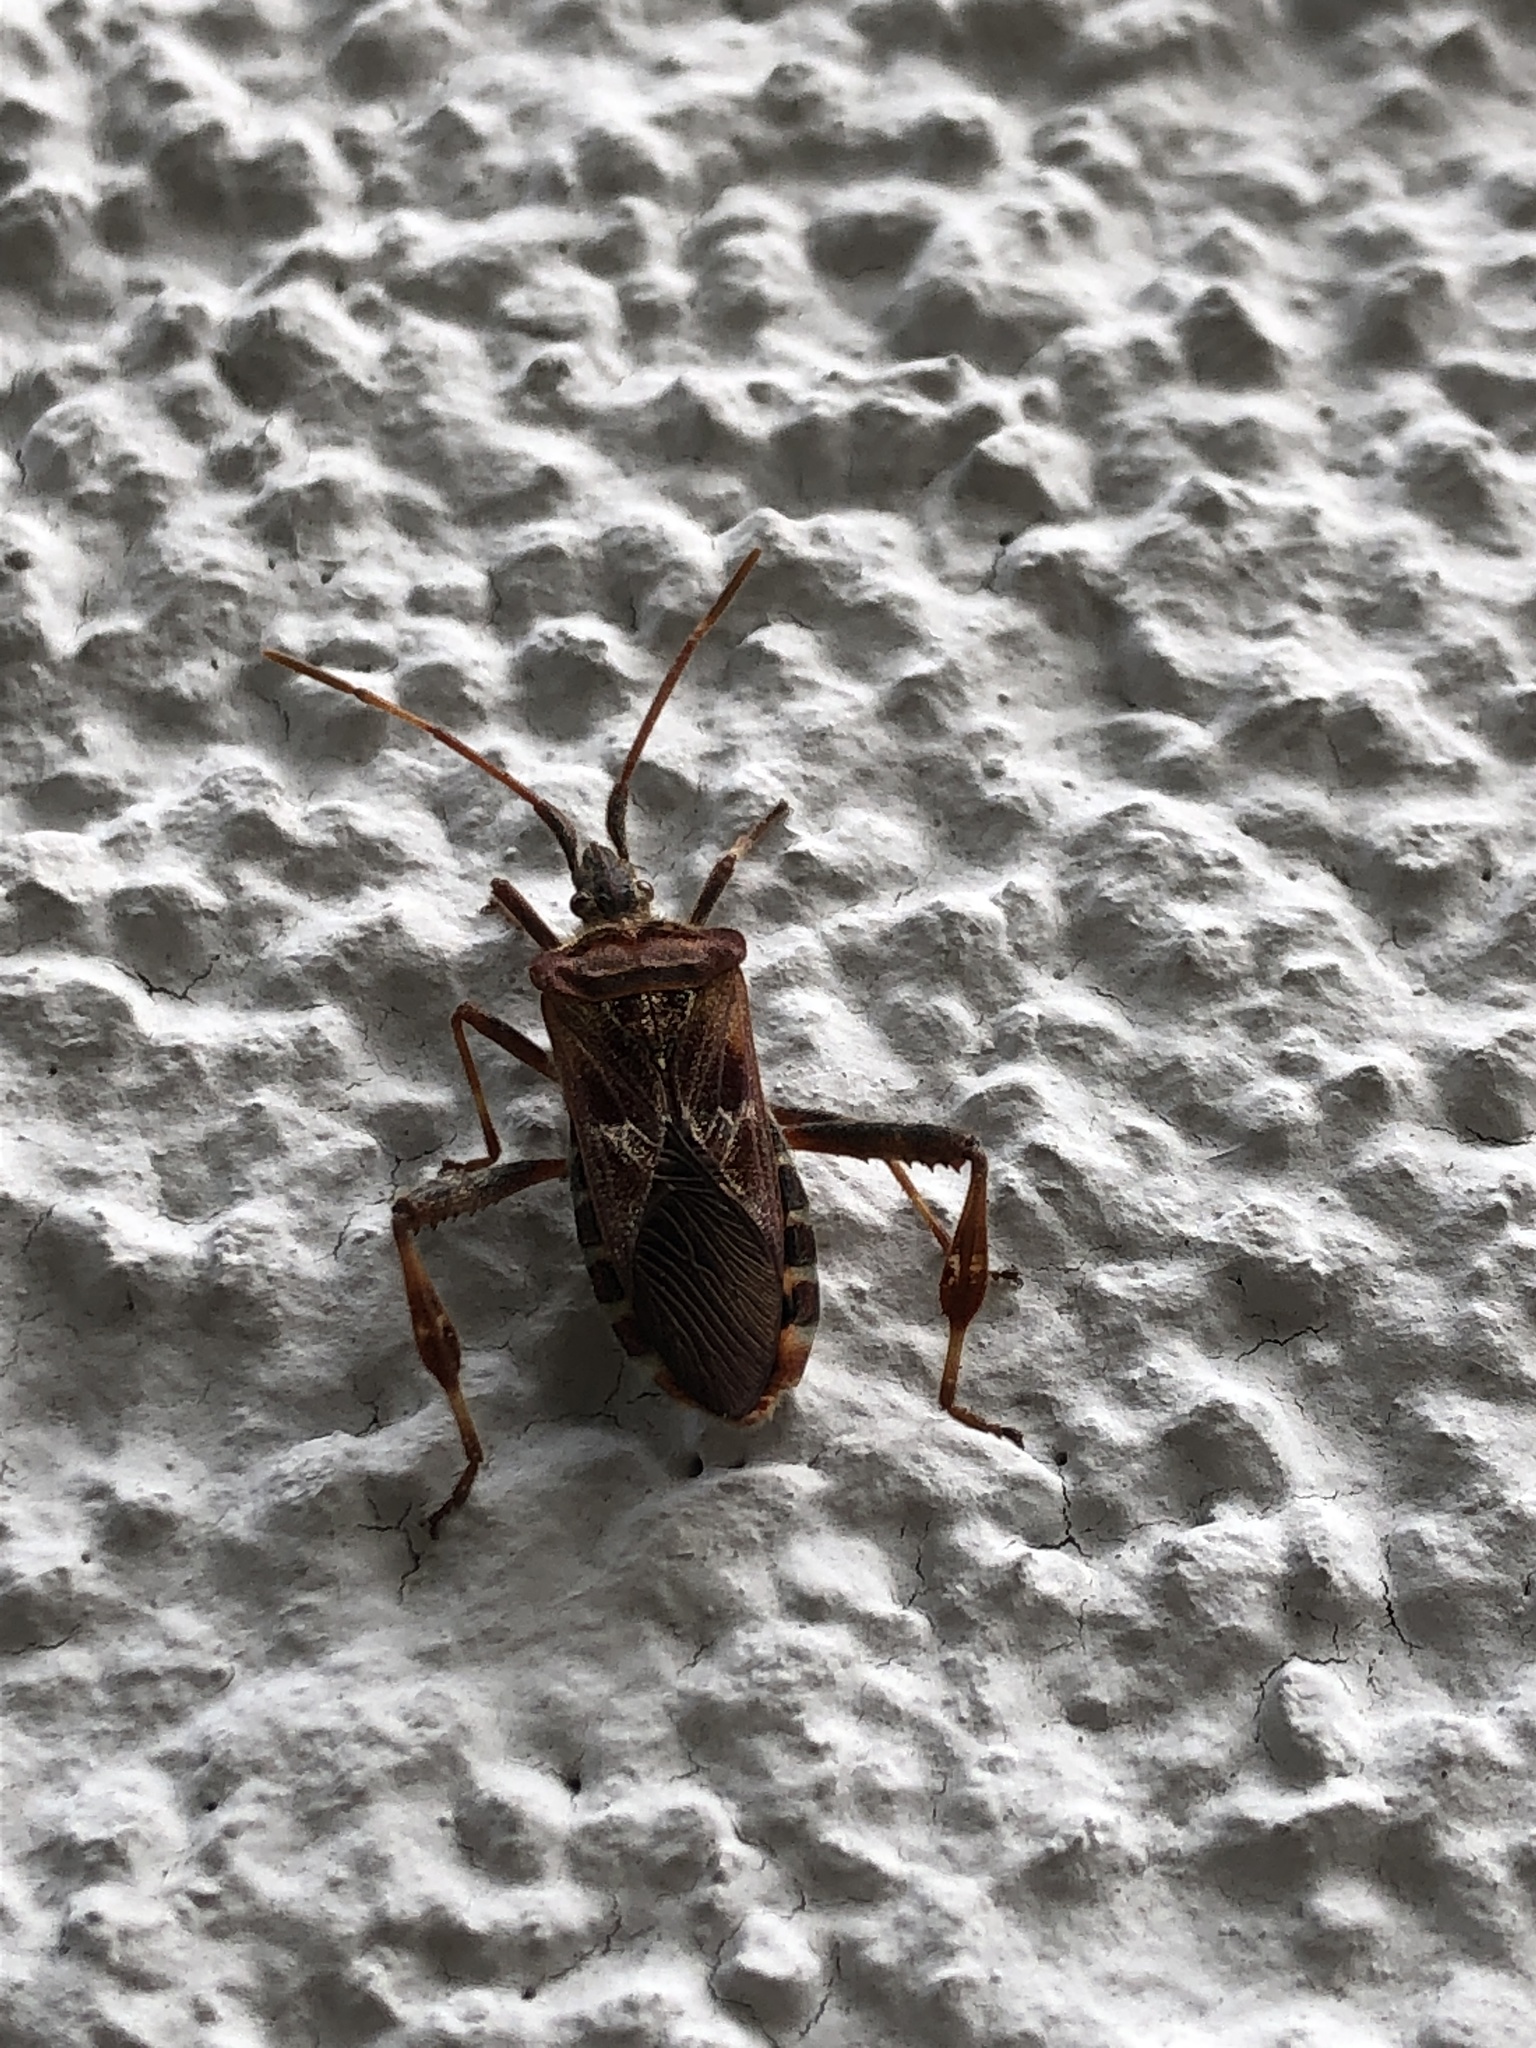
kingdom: Animalia
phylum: Arthropoda
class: Insecta
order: Hemiptera
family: Coreidae
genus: Leptoglossus
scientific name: Leptoglossus occidentalis
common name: Western conifer-seed bug
